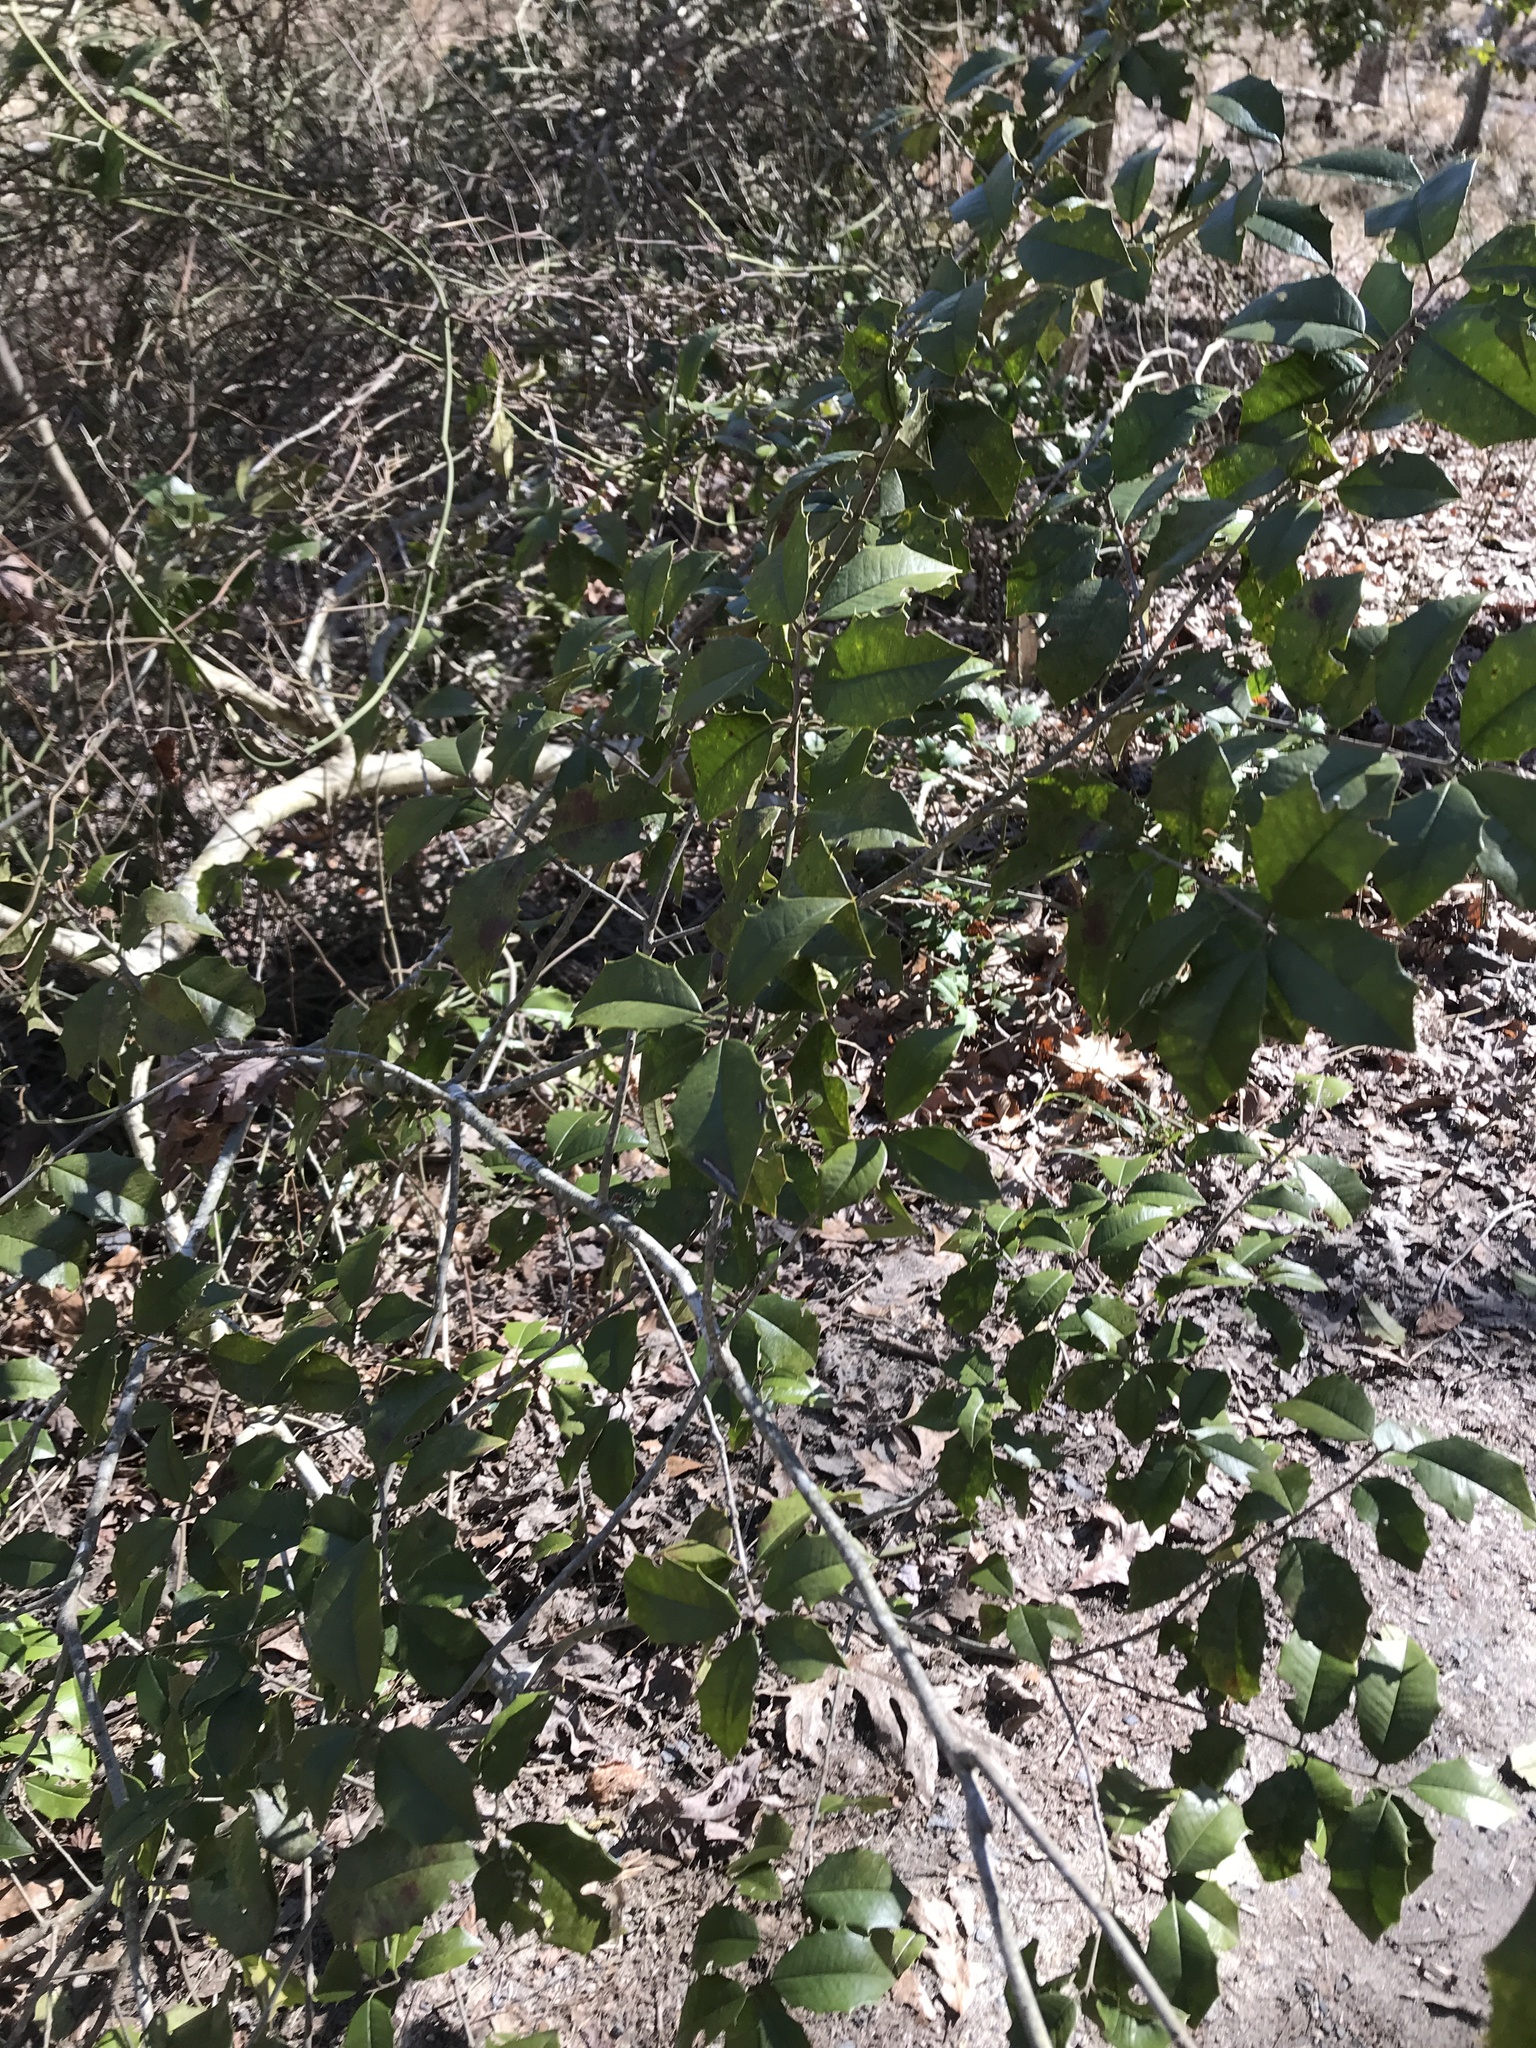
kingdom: Plantae
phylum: Tracheophyta
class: Magnoliopsida
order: Aquifoliales
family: Aquifoliaceae
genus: Ilex
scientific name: Ilex opaca
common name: American holly
